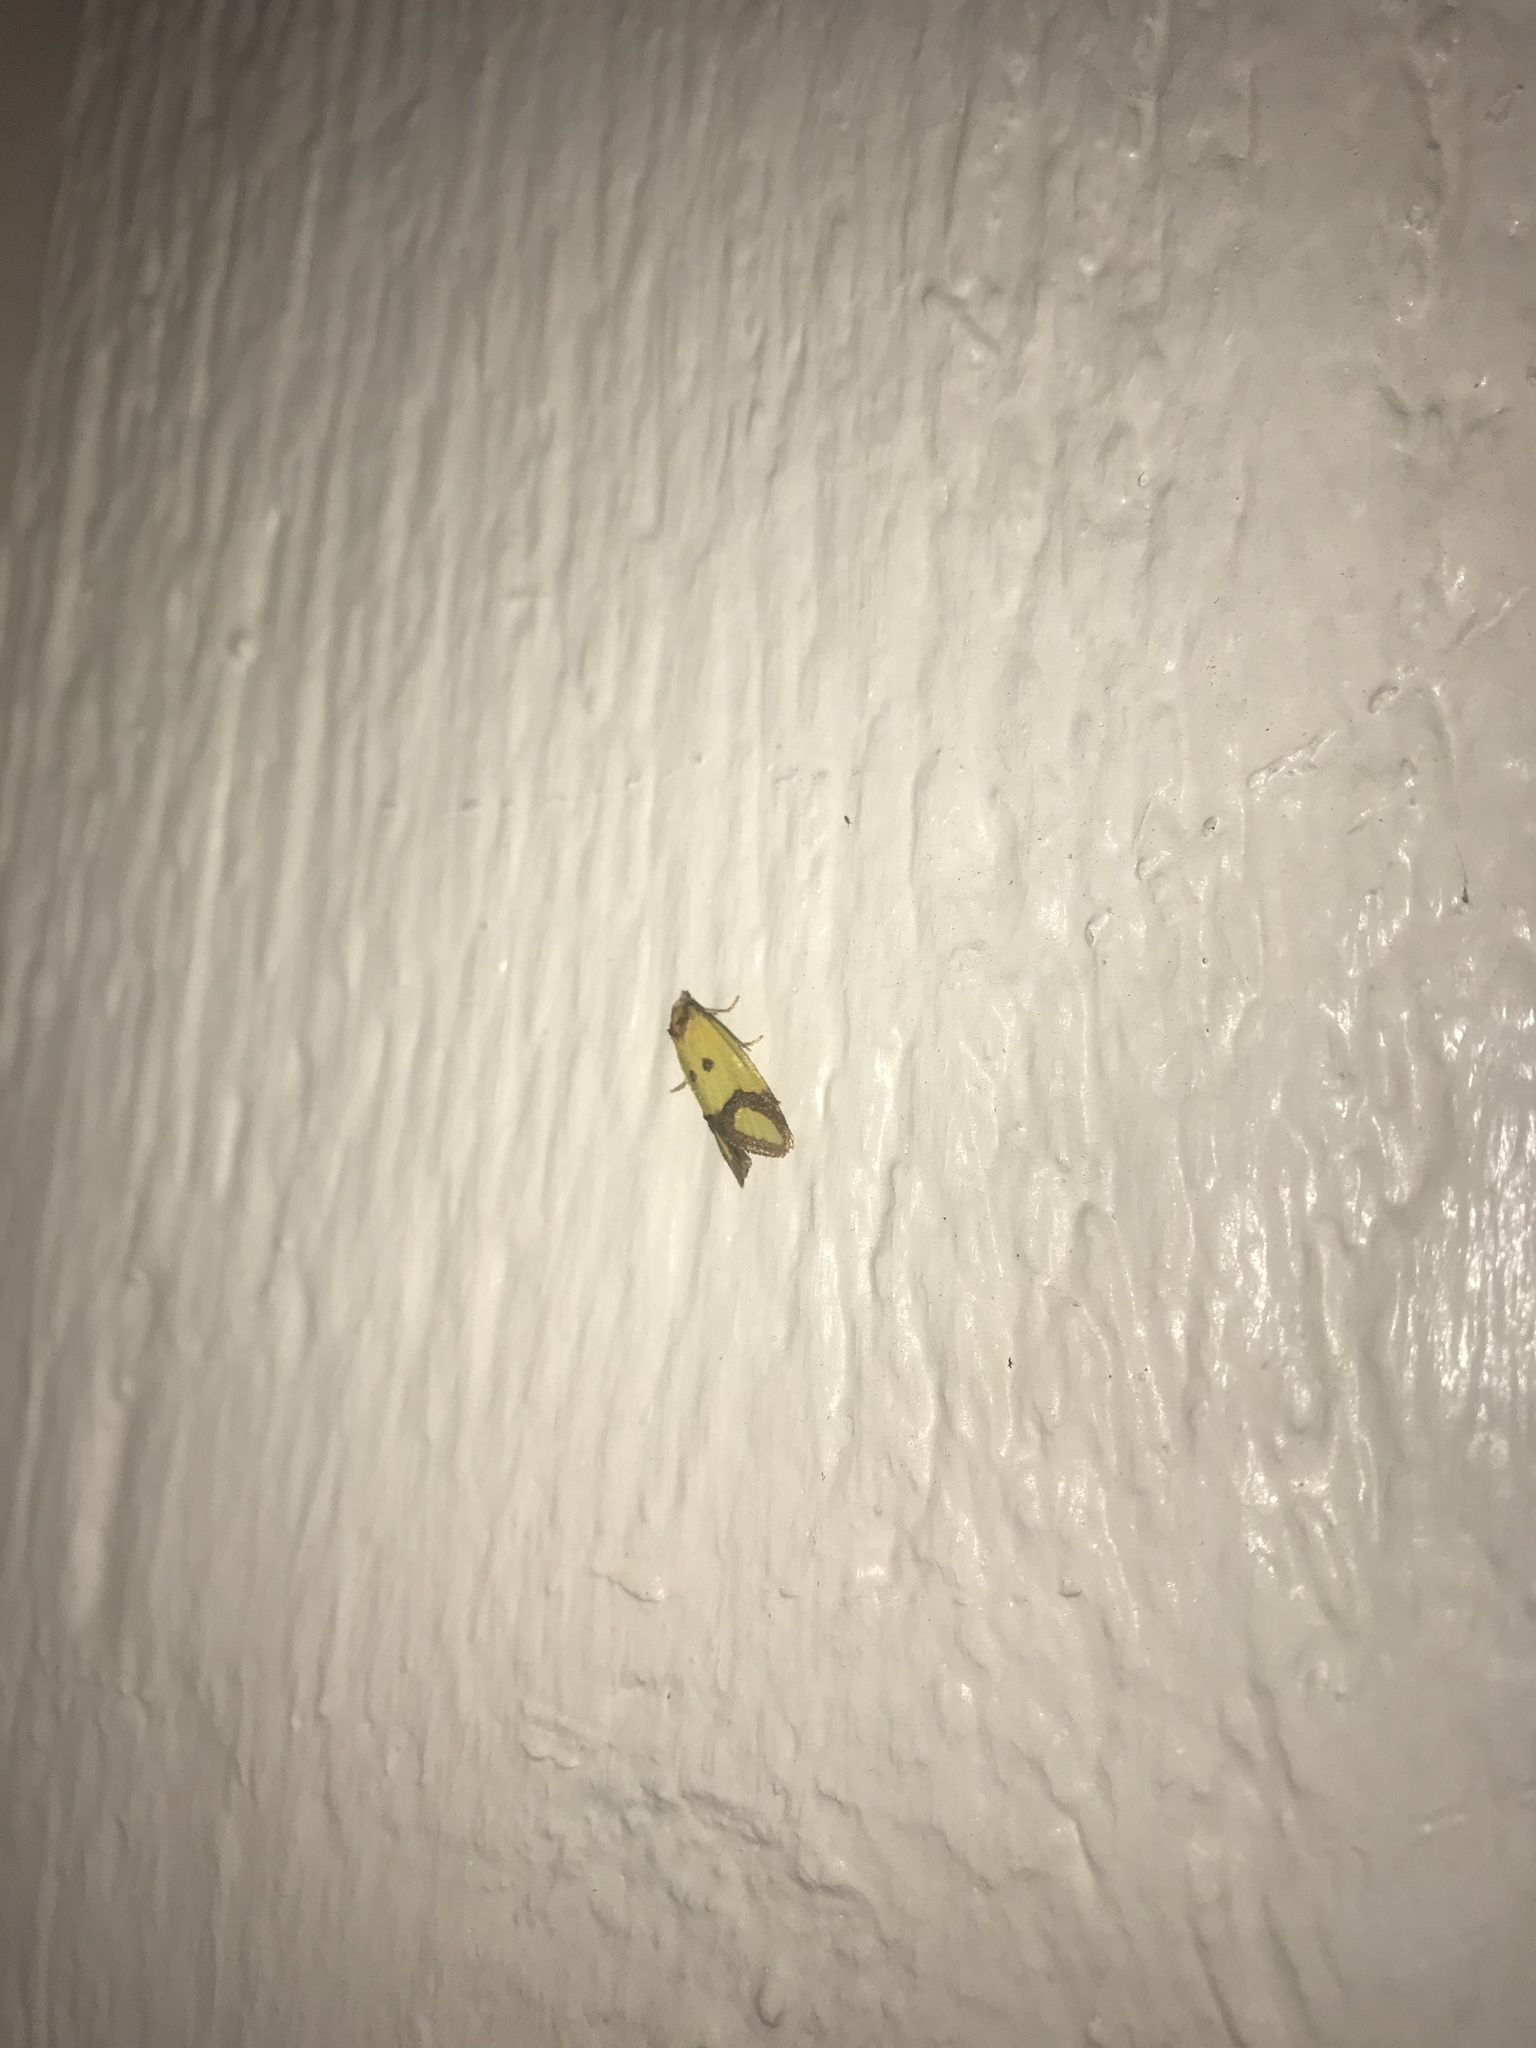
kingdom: Animalia
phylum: Arthropoda
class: Insecta
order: Lepidoptera
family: Tortricidae
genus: Agapeta
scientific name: Agapeta zoegana
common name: Sulfur knapweed root moth
